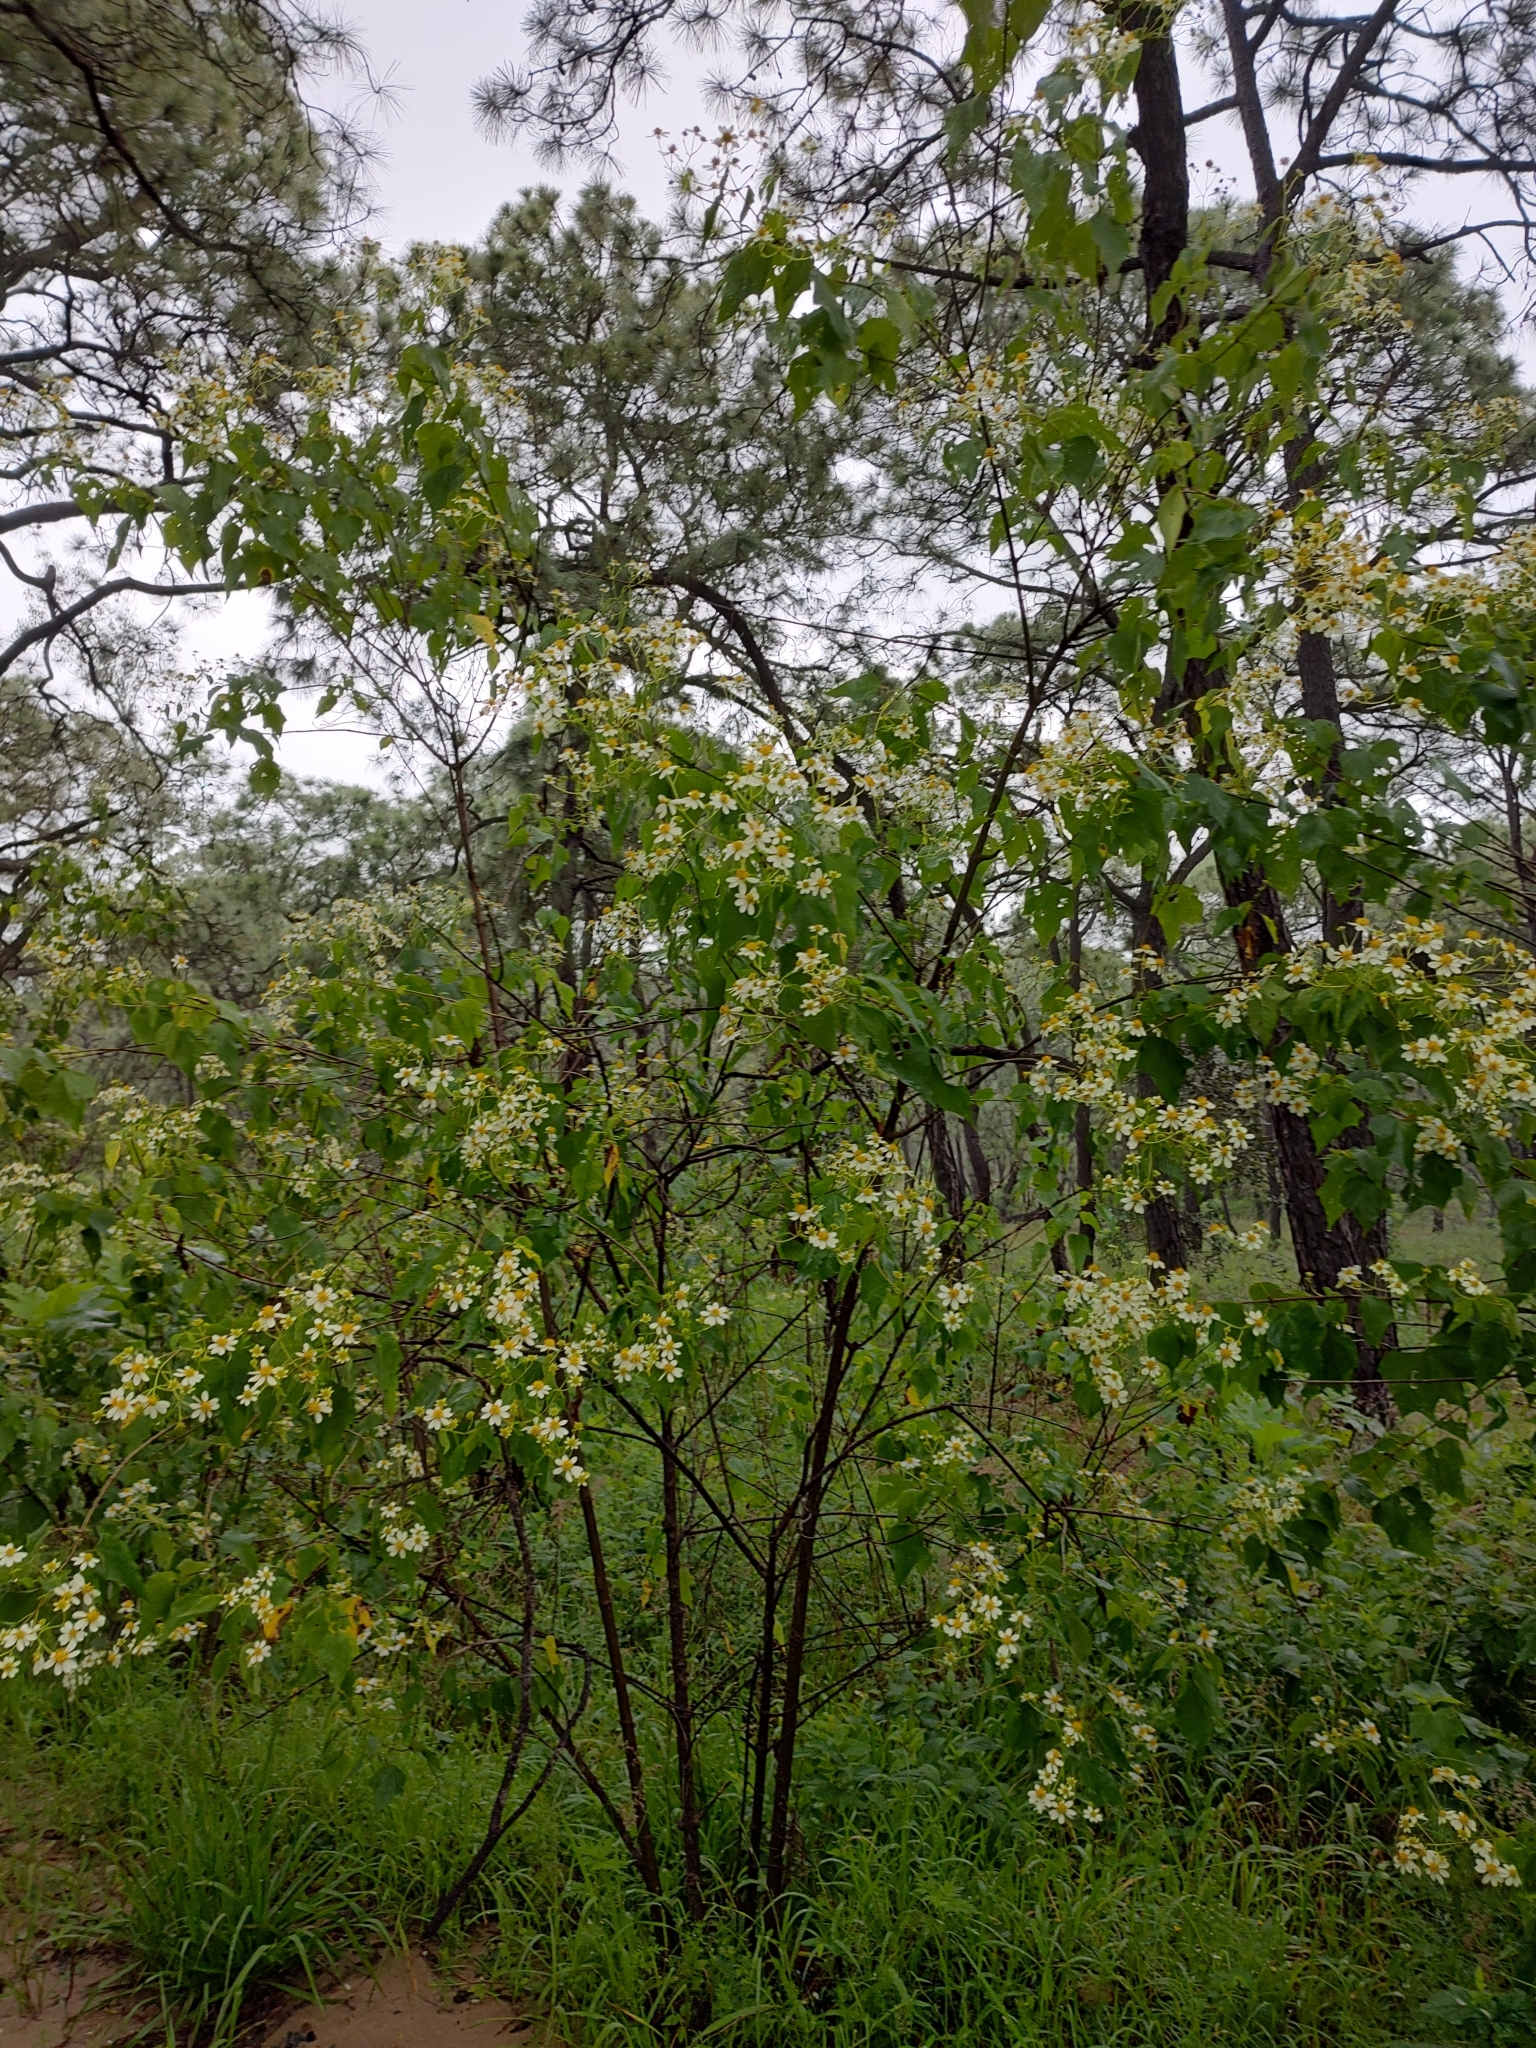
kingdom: Plantae
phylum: Tracheophyta
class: Magnoliopsida
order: Asterales
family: Asteraceae
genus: Montanoa
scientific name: Montanoa karwinskii
